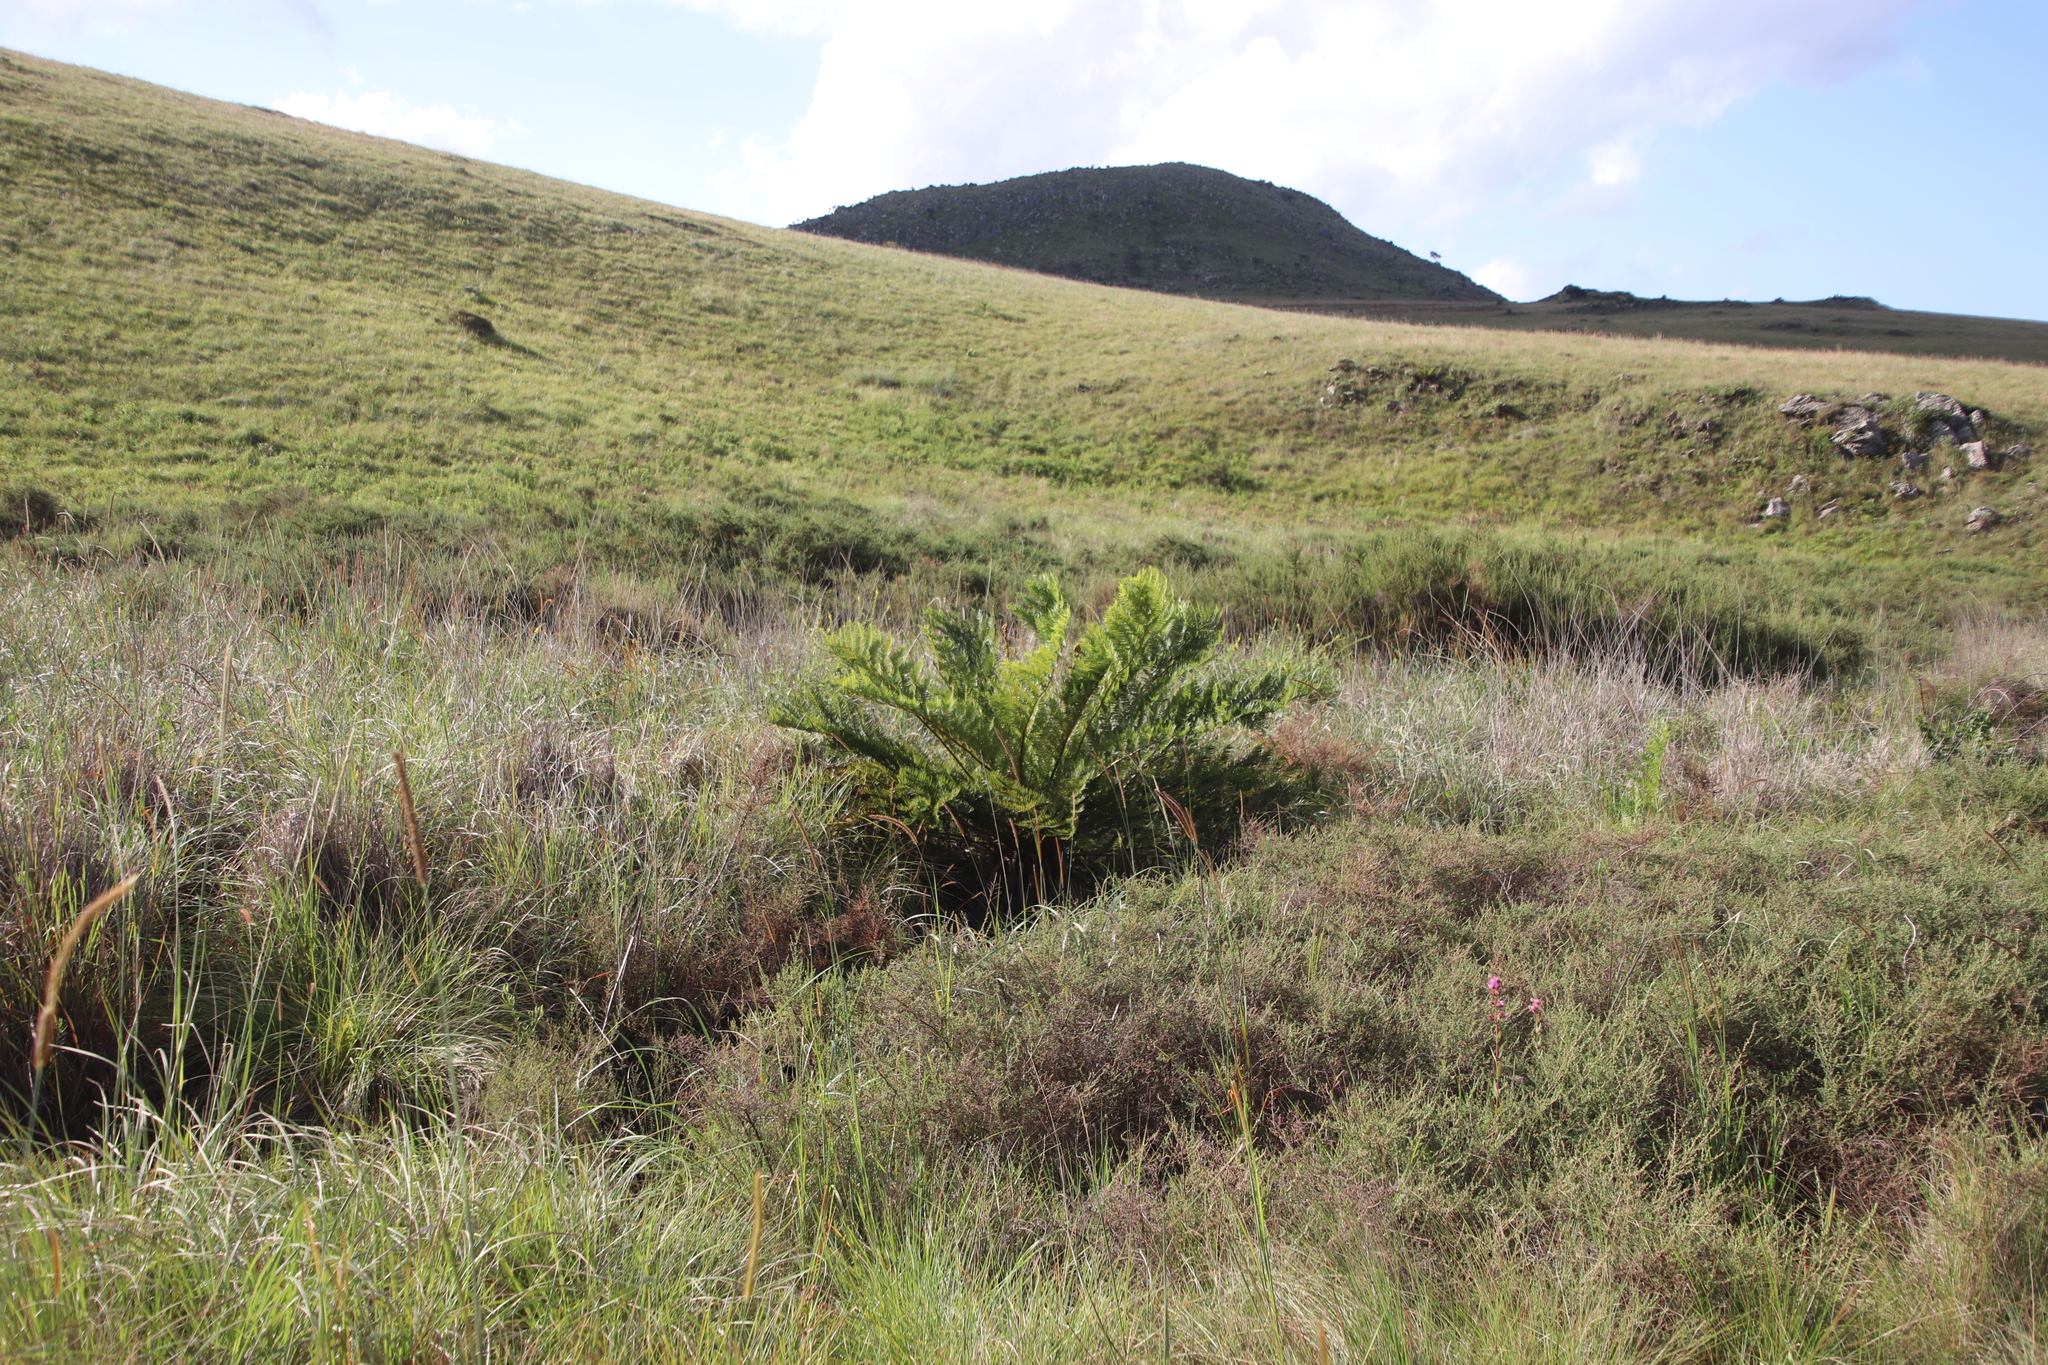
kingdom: Plantae
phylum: Tracheophyta
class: Polypodiopsida
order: Cyatheales
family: Cyatheaceae
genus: Alsophila
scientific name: Alsophila dregei
